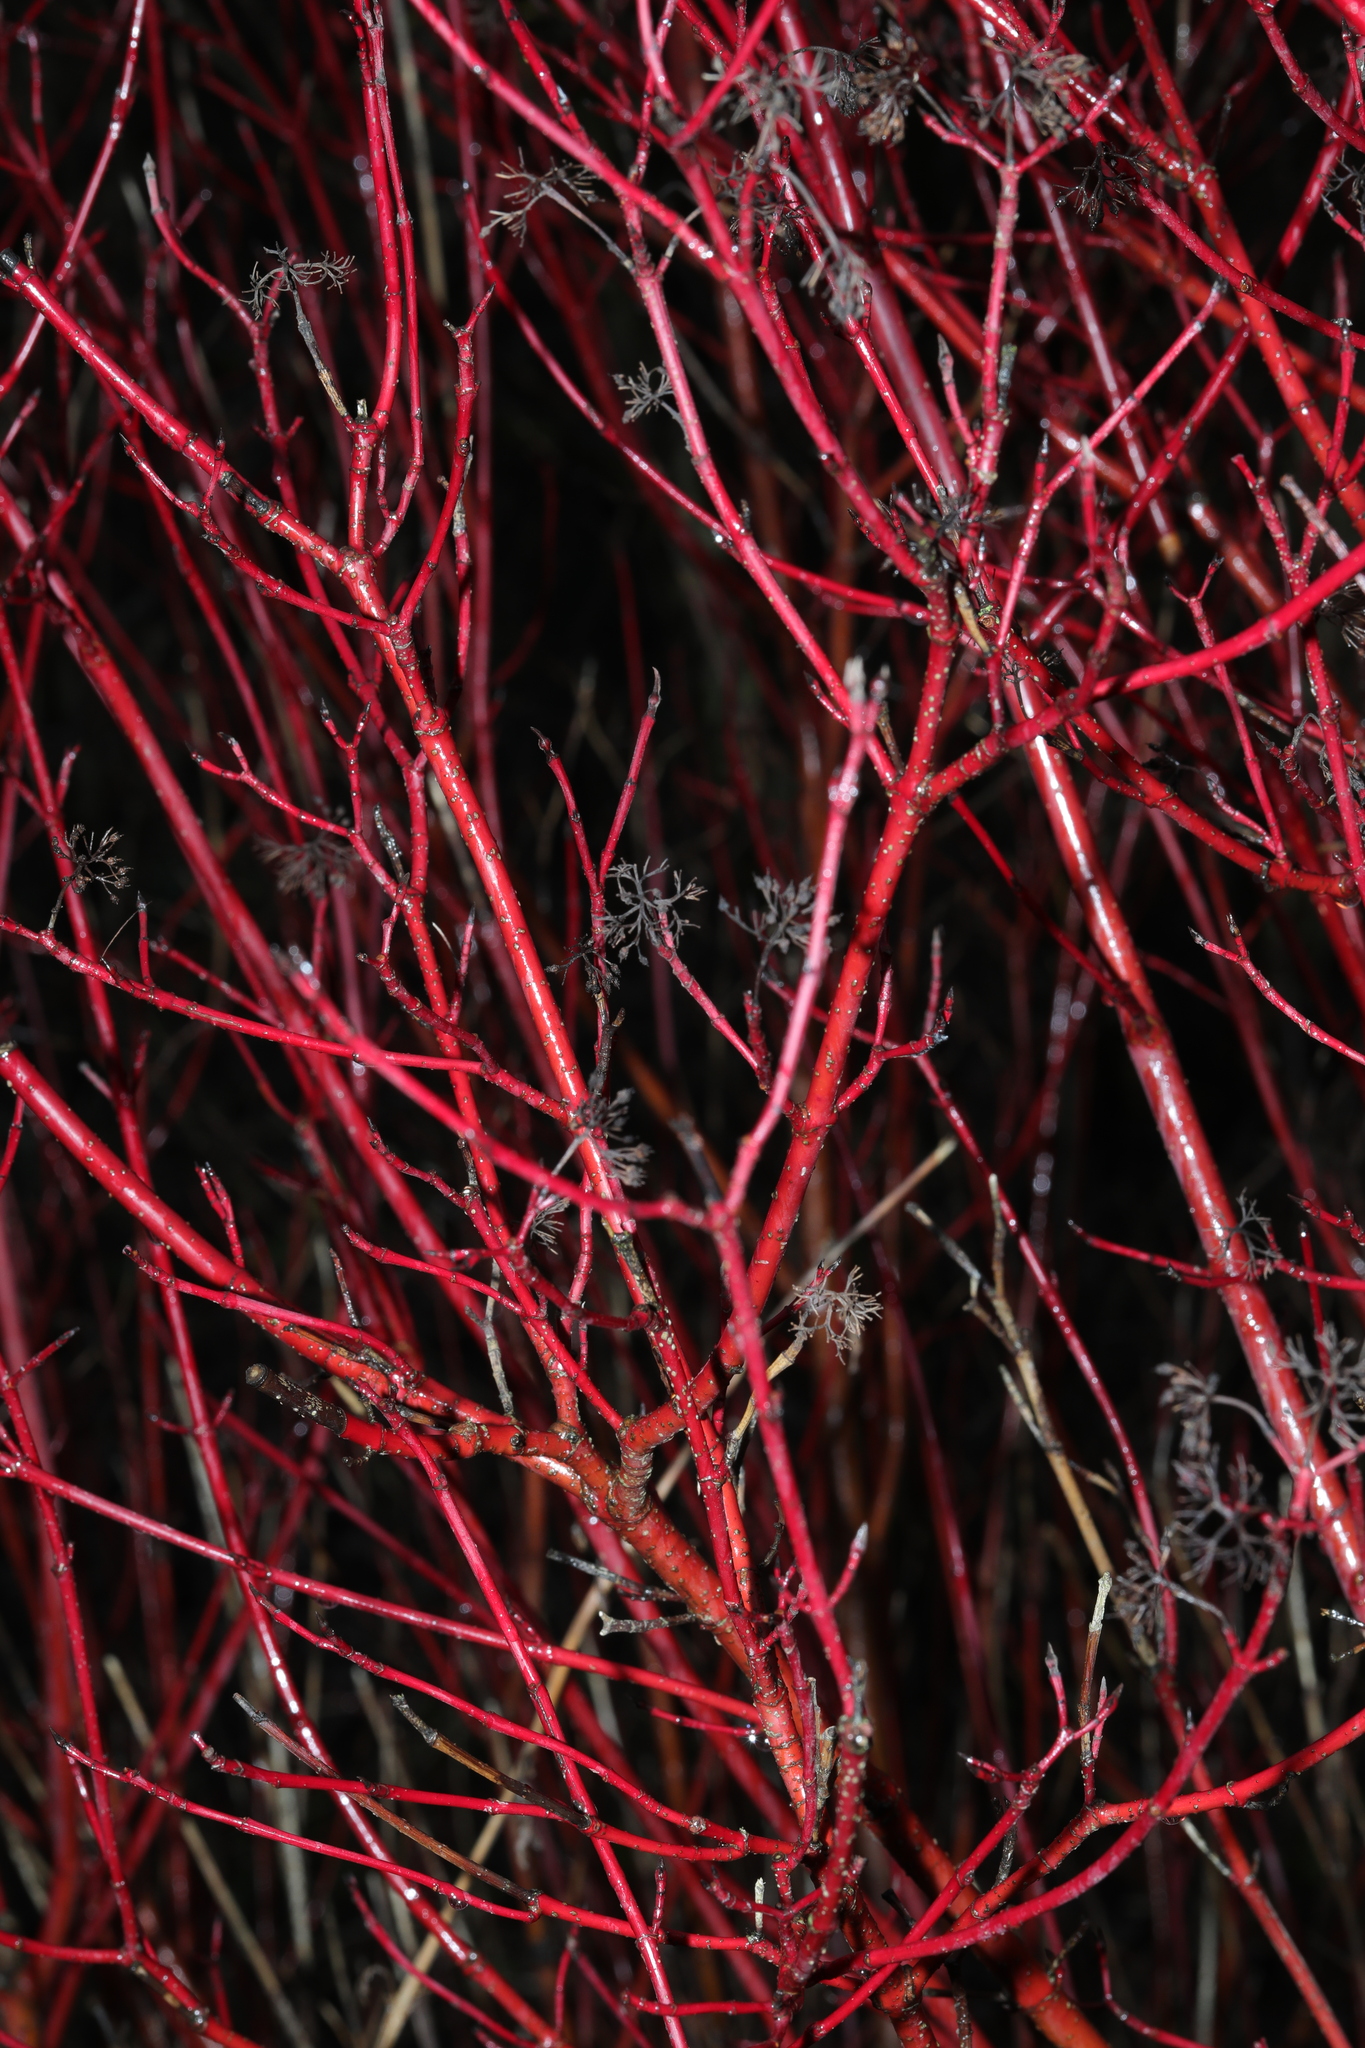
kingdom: Plantae
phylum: Tracheophyta
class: Magnoliopsida
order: Cornales
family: Cornaceae
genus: Cornus
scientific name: Cornus sericea
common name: Red-osier dogwood
